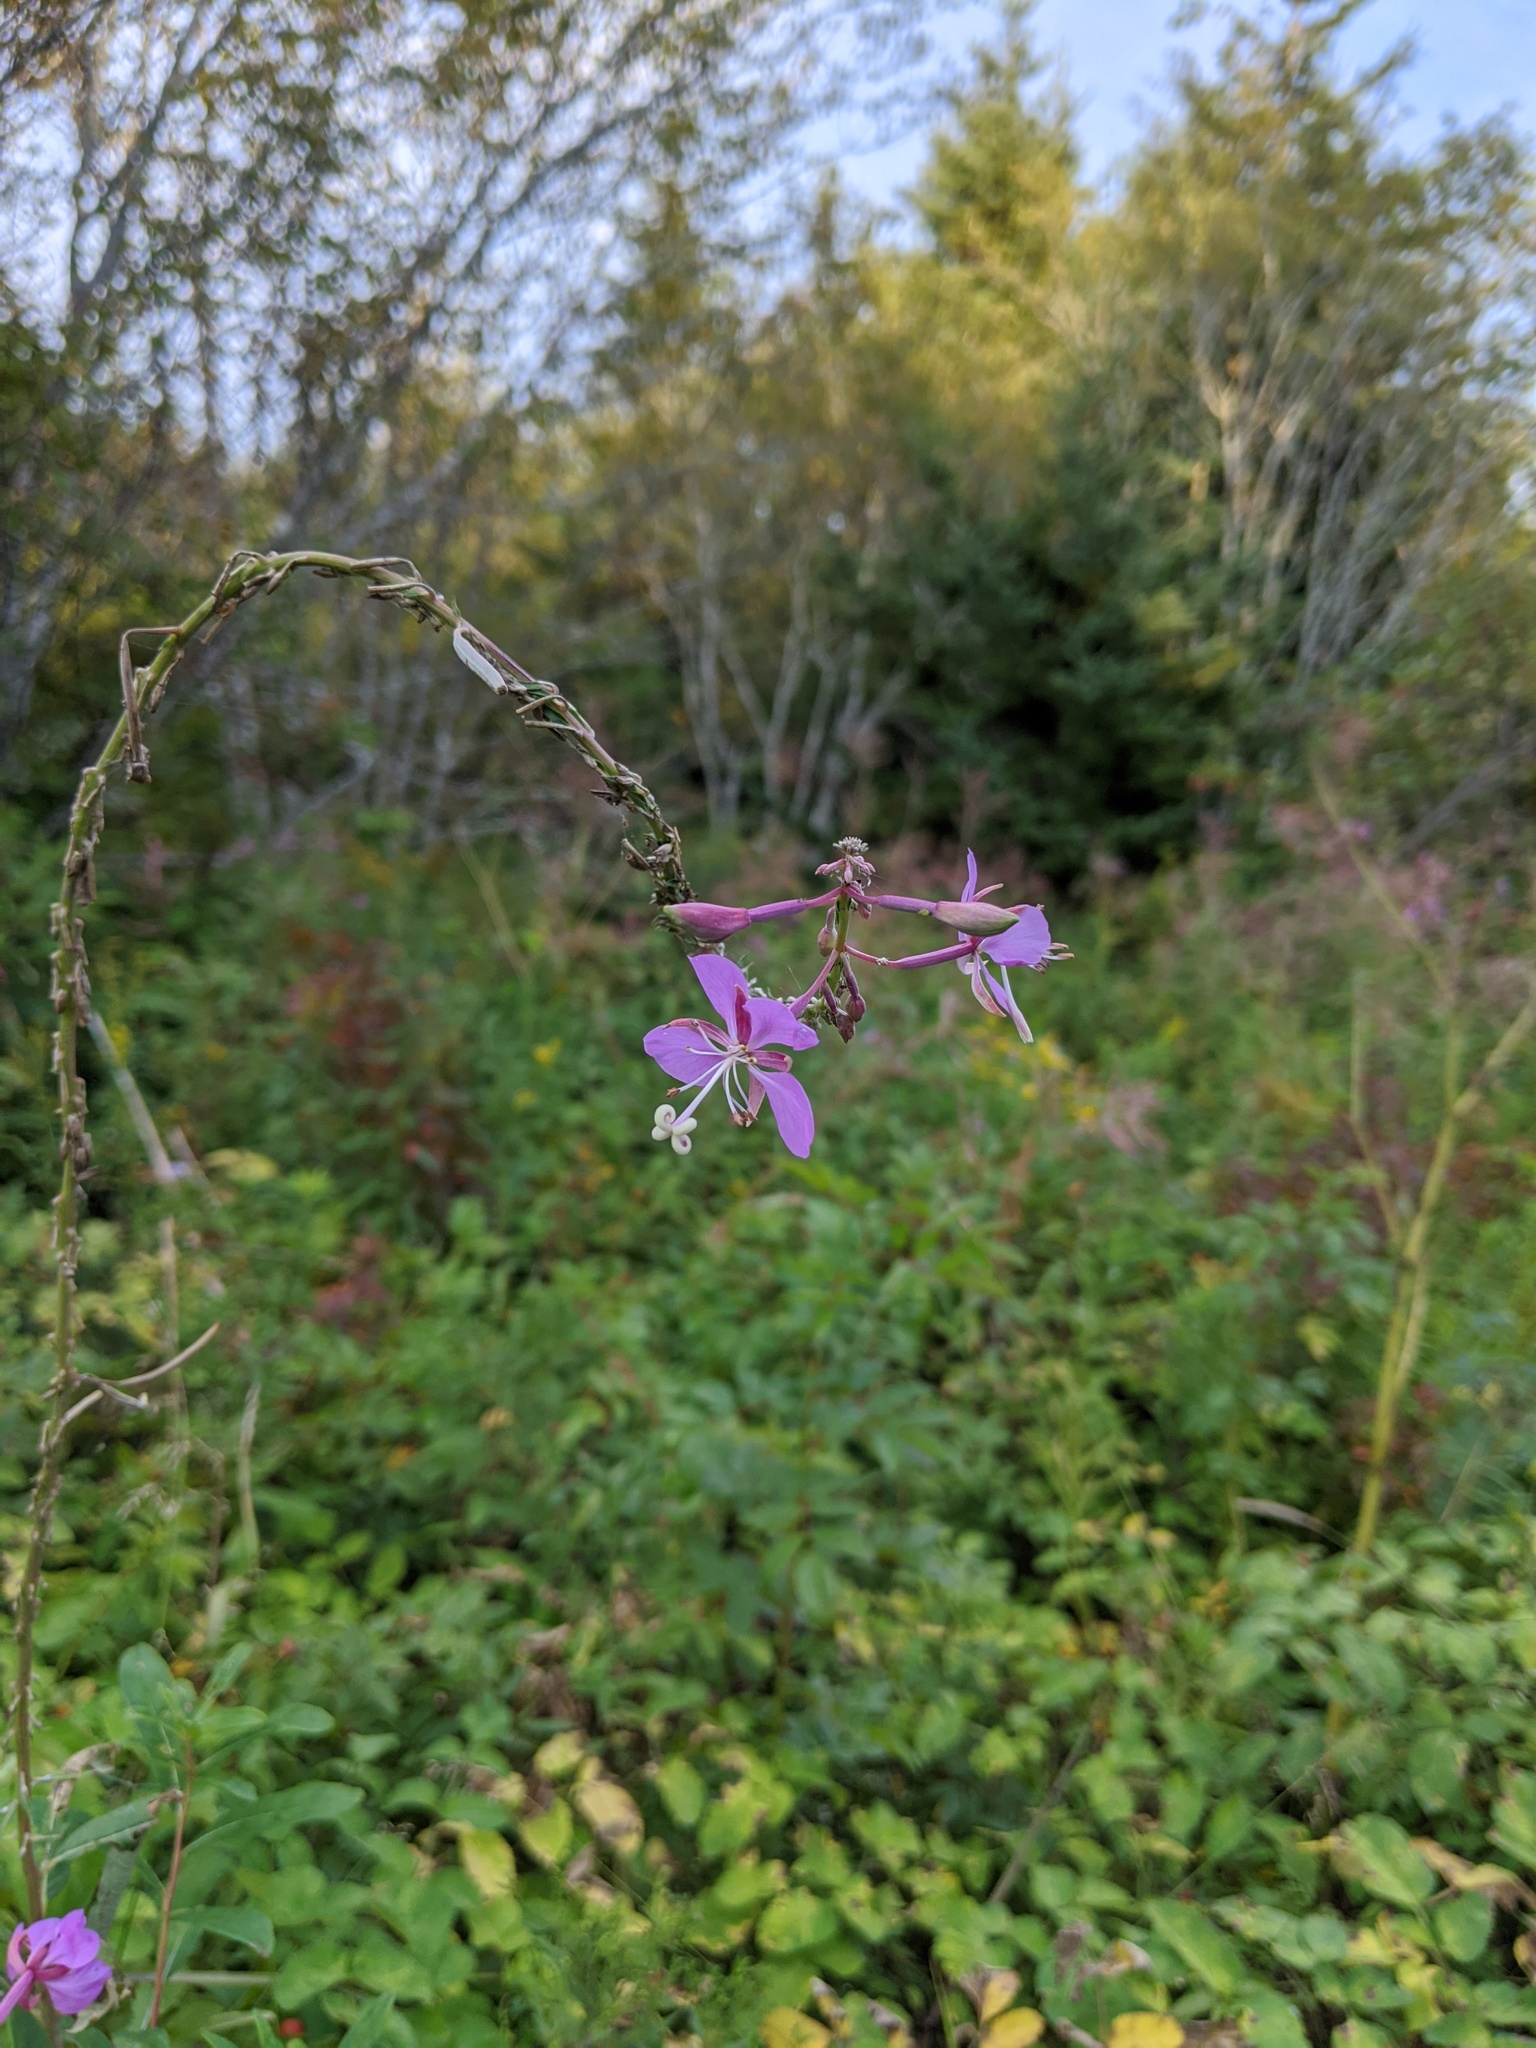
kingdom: Plantae
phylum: Tracheophyta
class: Magnoliopsida
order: Myrtales
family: Onagraceae
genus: Chamaenerion
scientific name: Chamaenerion angustifolium
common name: Fireweed
